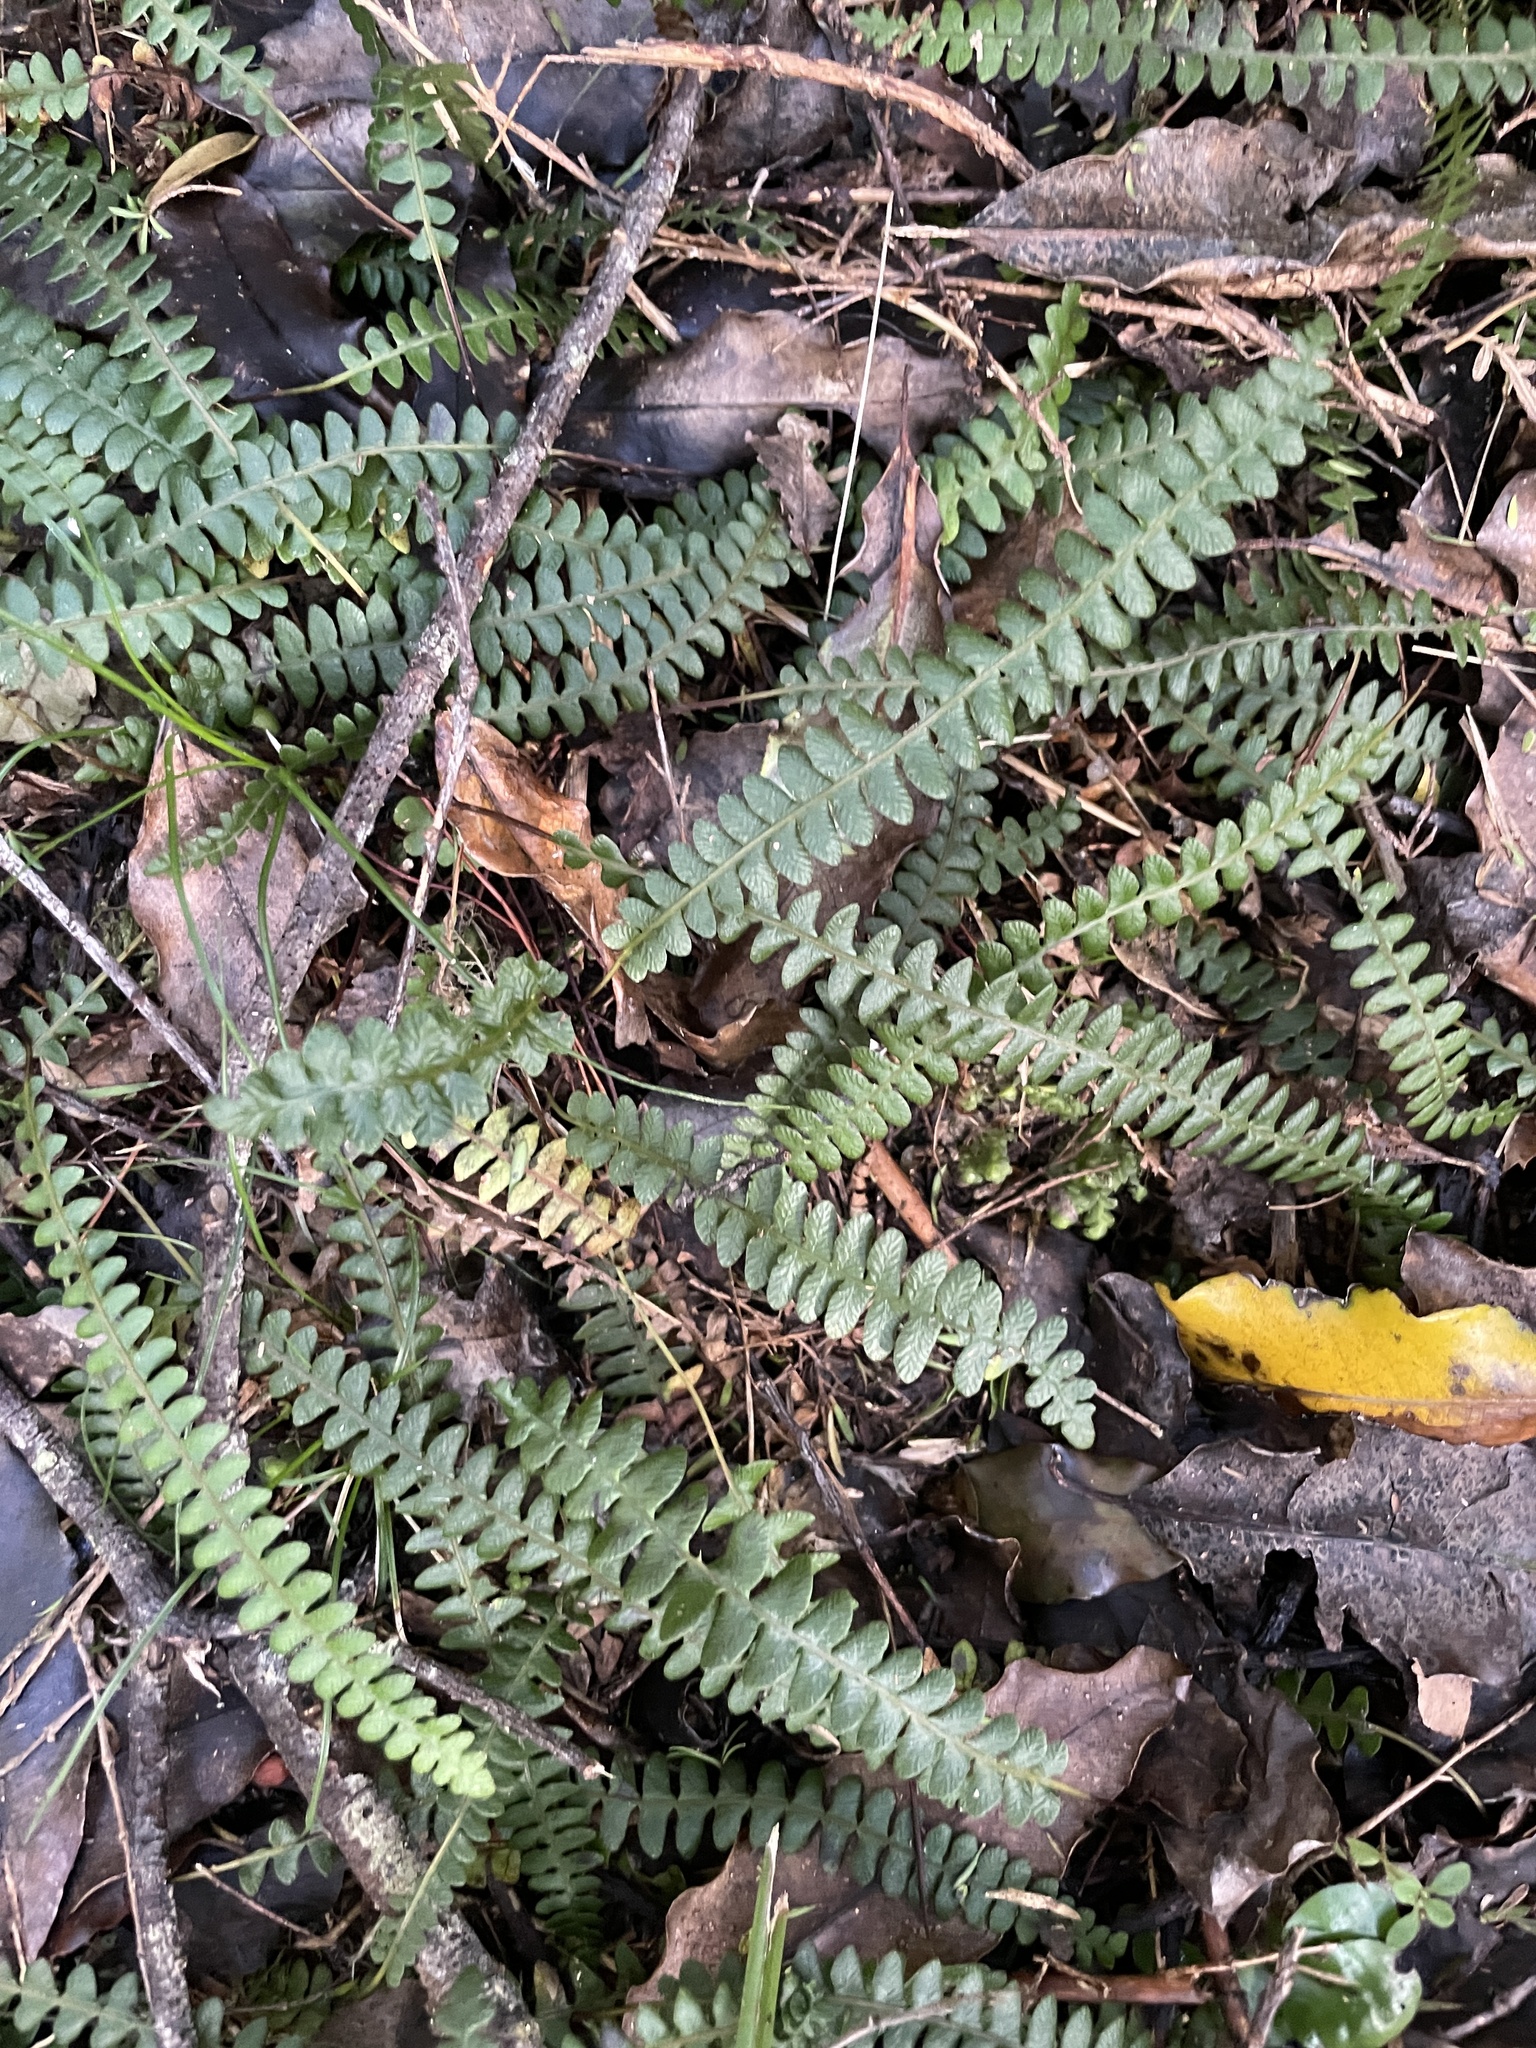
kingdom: Plantae
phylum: Tracheophyta
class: Polypodiopsida
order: Polypodiales
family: Blechnaceae
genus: Austroblechnum
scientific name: Austroblechnum penna-marina
